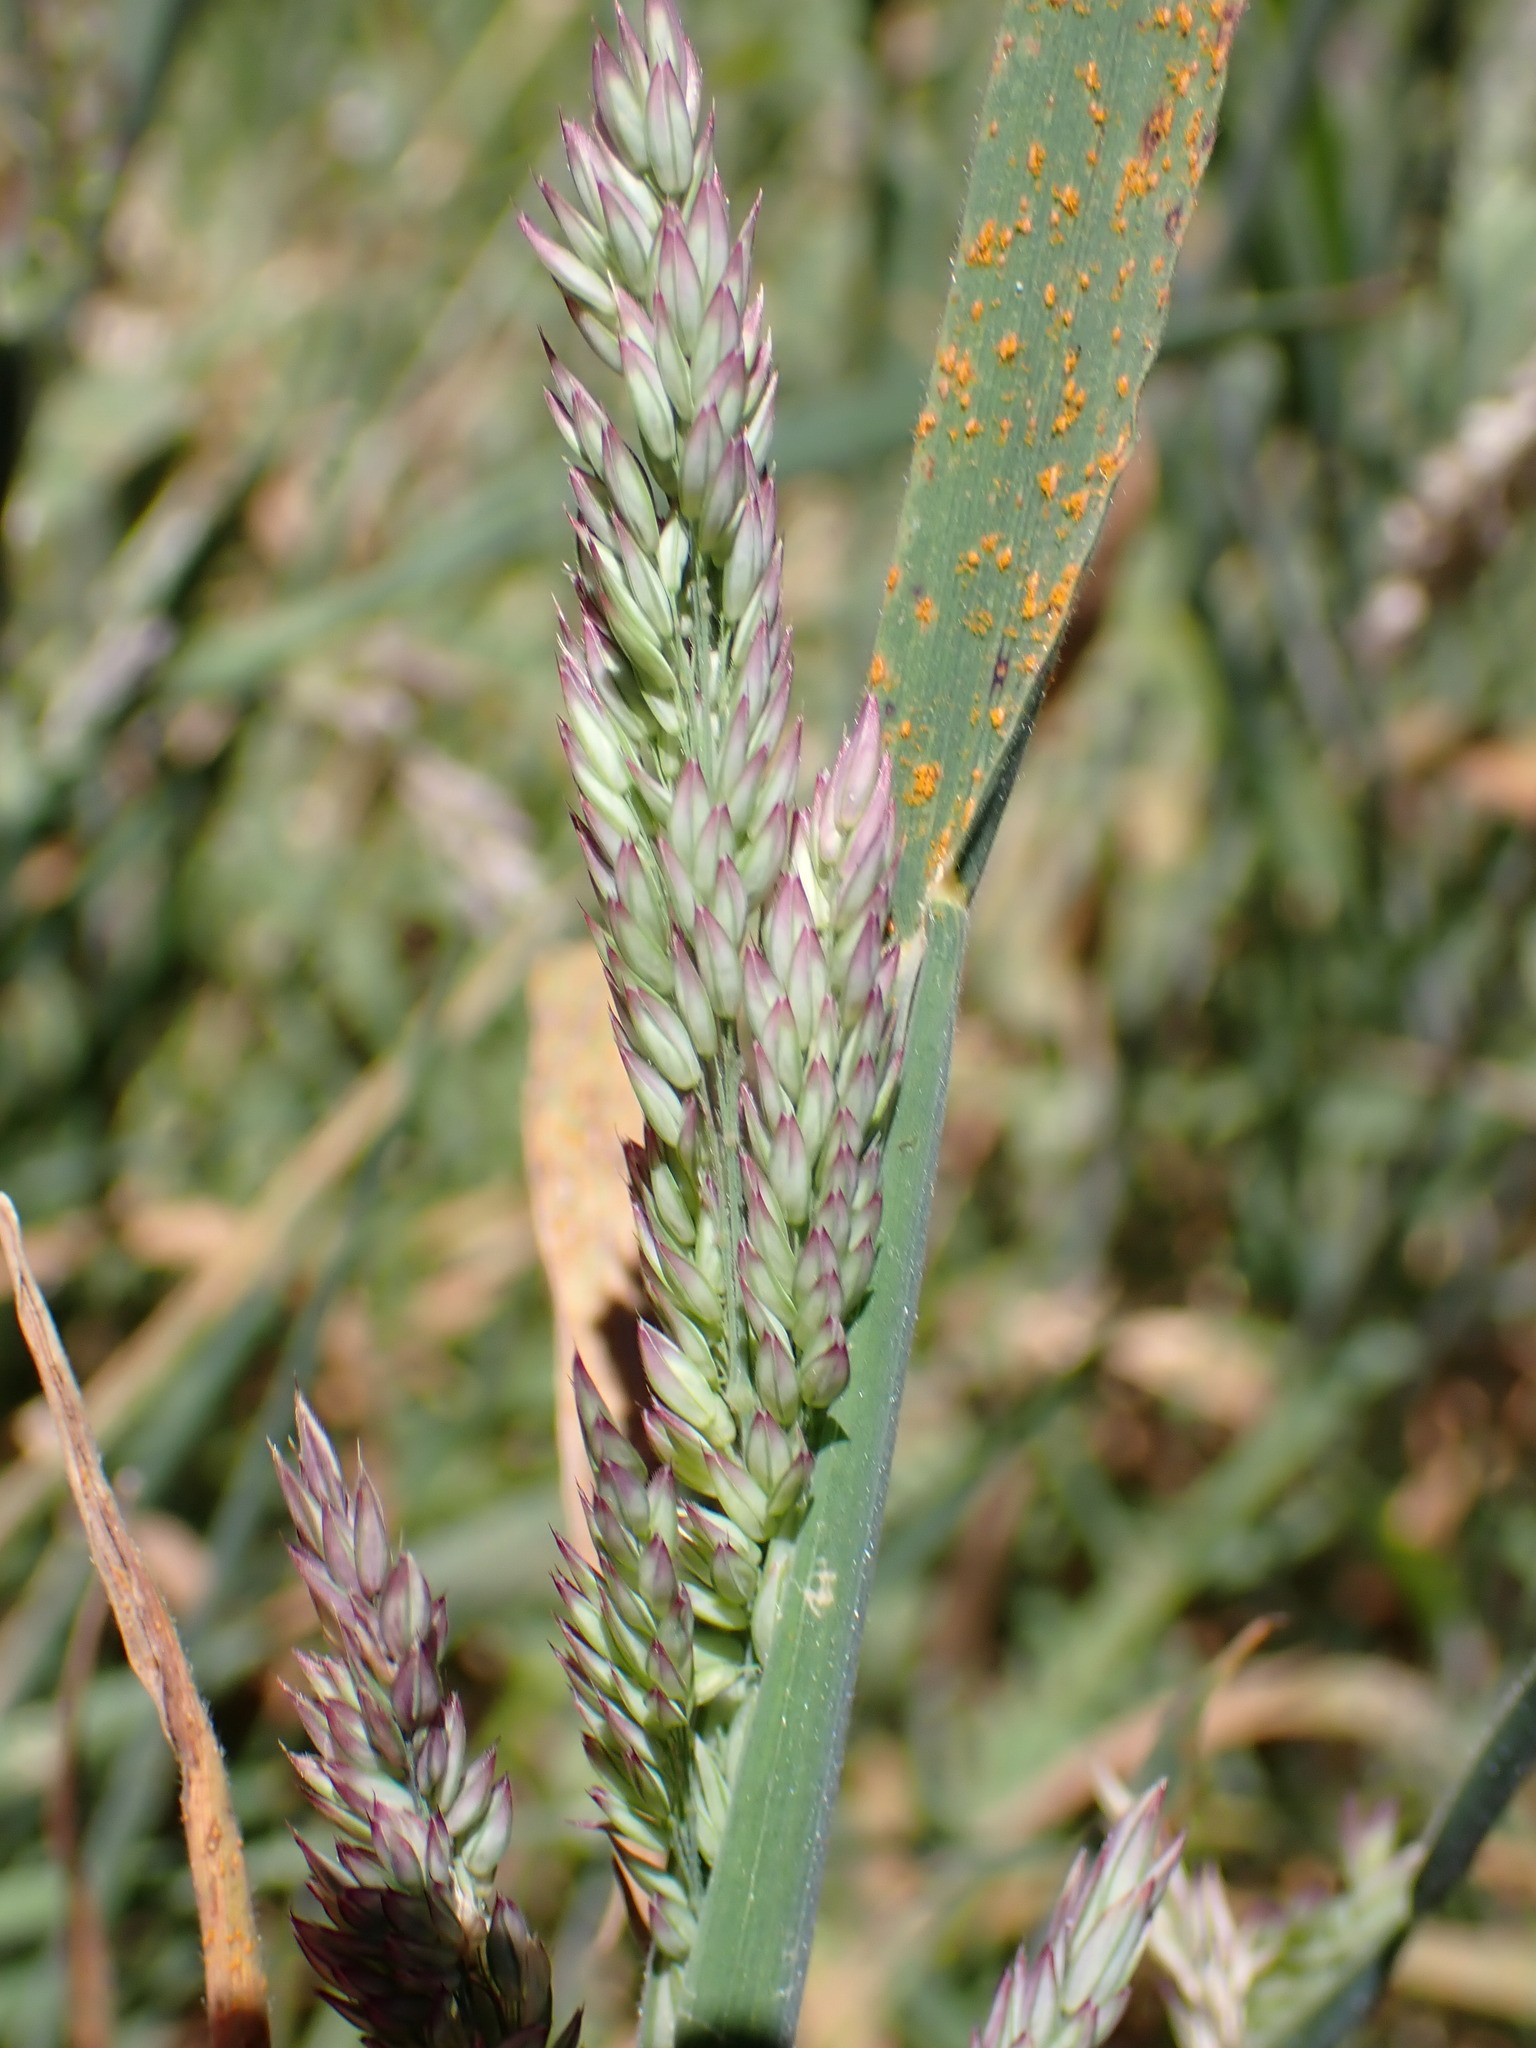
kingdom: Plantae
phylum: Tracheophyta
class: Liliopsida
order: Poales
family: Poaceae
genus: Holcus
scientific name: Holcus lanatus
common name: Yorkshire-fog
